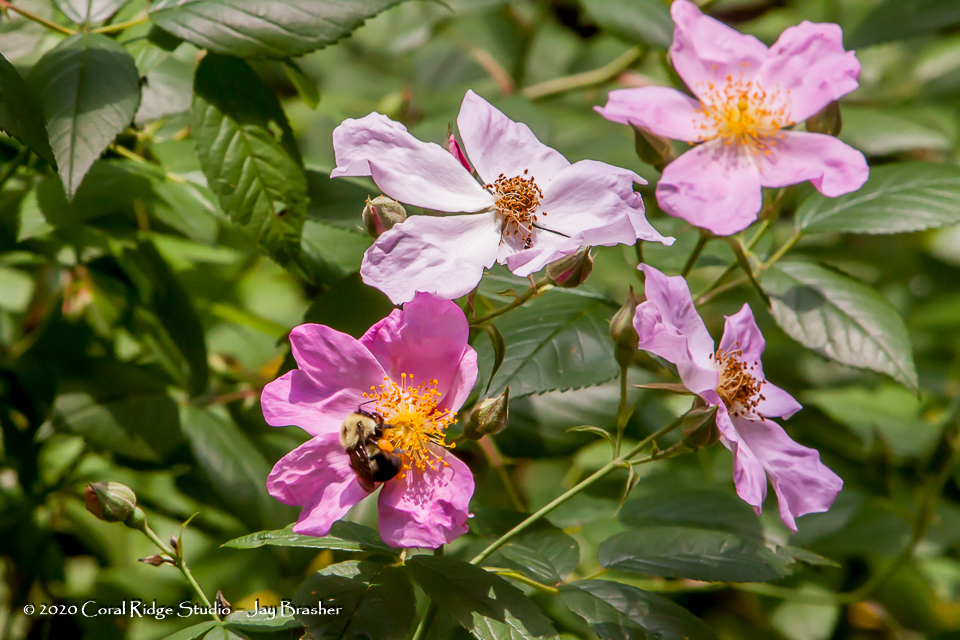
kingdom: Animalia
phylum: Arthropoda
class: Insecta
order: Hymenoptera
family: Apidae
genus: Bombus
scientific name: Bombus bimaculatus
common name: Two-spotted bumble bee
